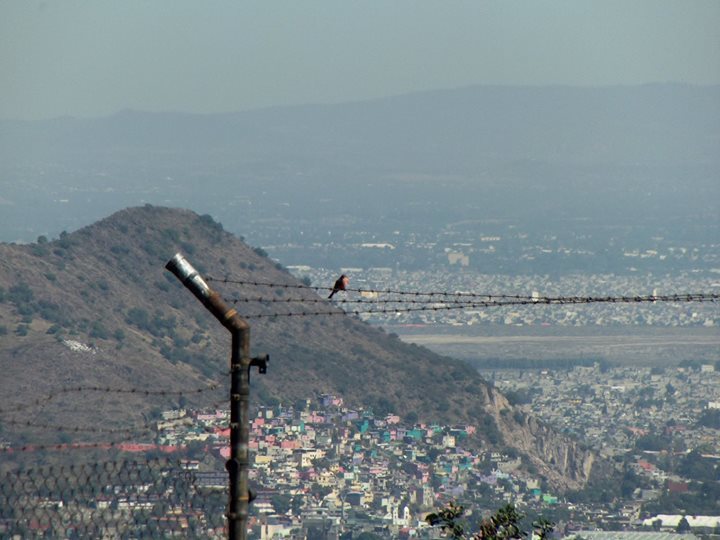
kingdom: Animalia
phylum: Chordata
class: Aves
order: Passeriformes
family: Tyrannidae
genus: Pyrocephalus
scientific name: Pyrocephalus rubinus
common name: Vermilion flycatcher
